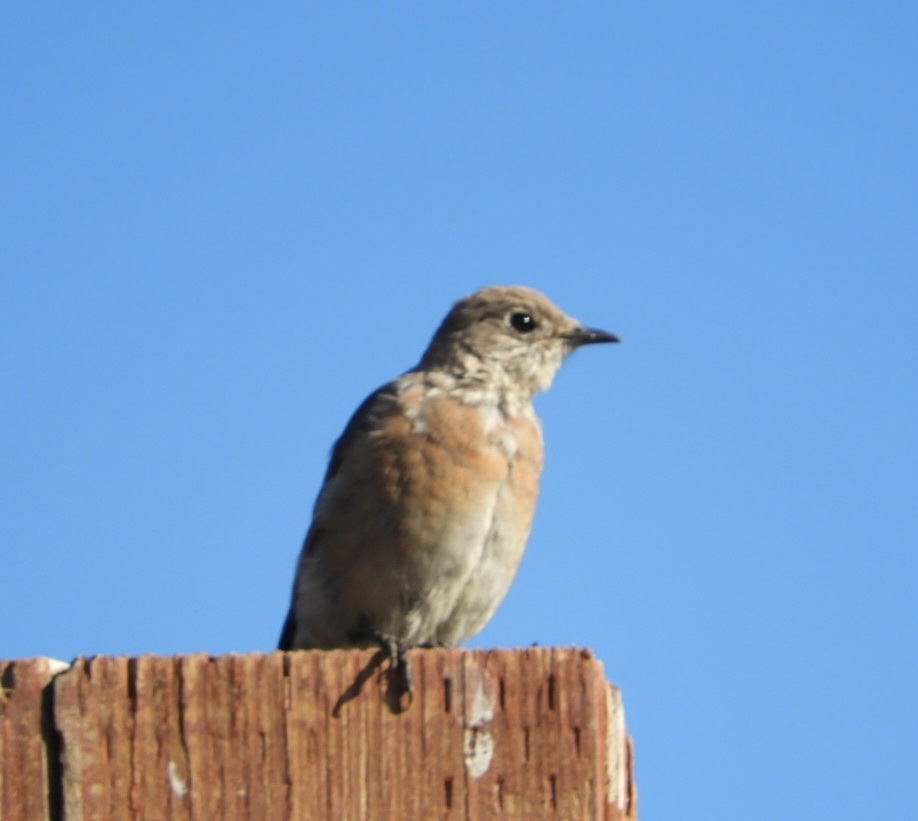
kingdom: Animalia
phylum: Chordata
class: Aves
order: Passeriformes
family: Turdidae
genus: Sialia
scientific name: Sialia mexicana
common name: Western bluebird
